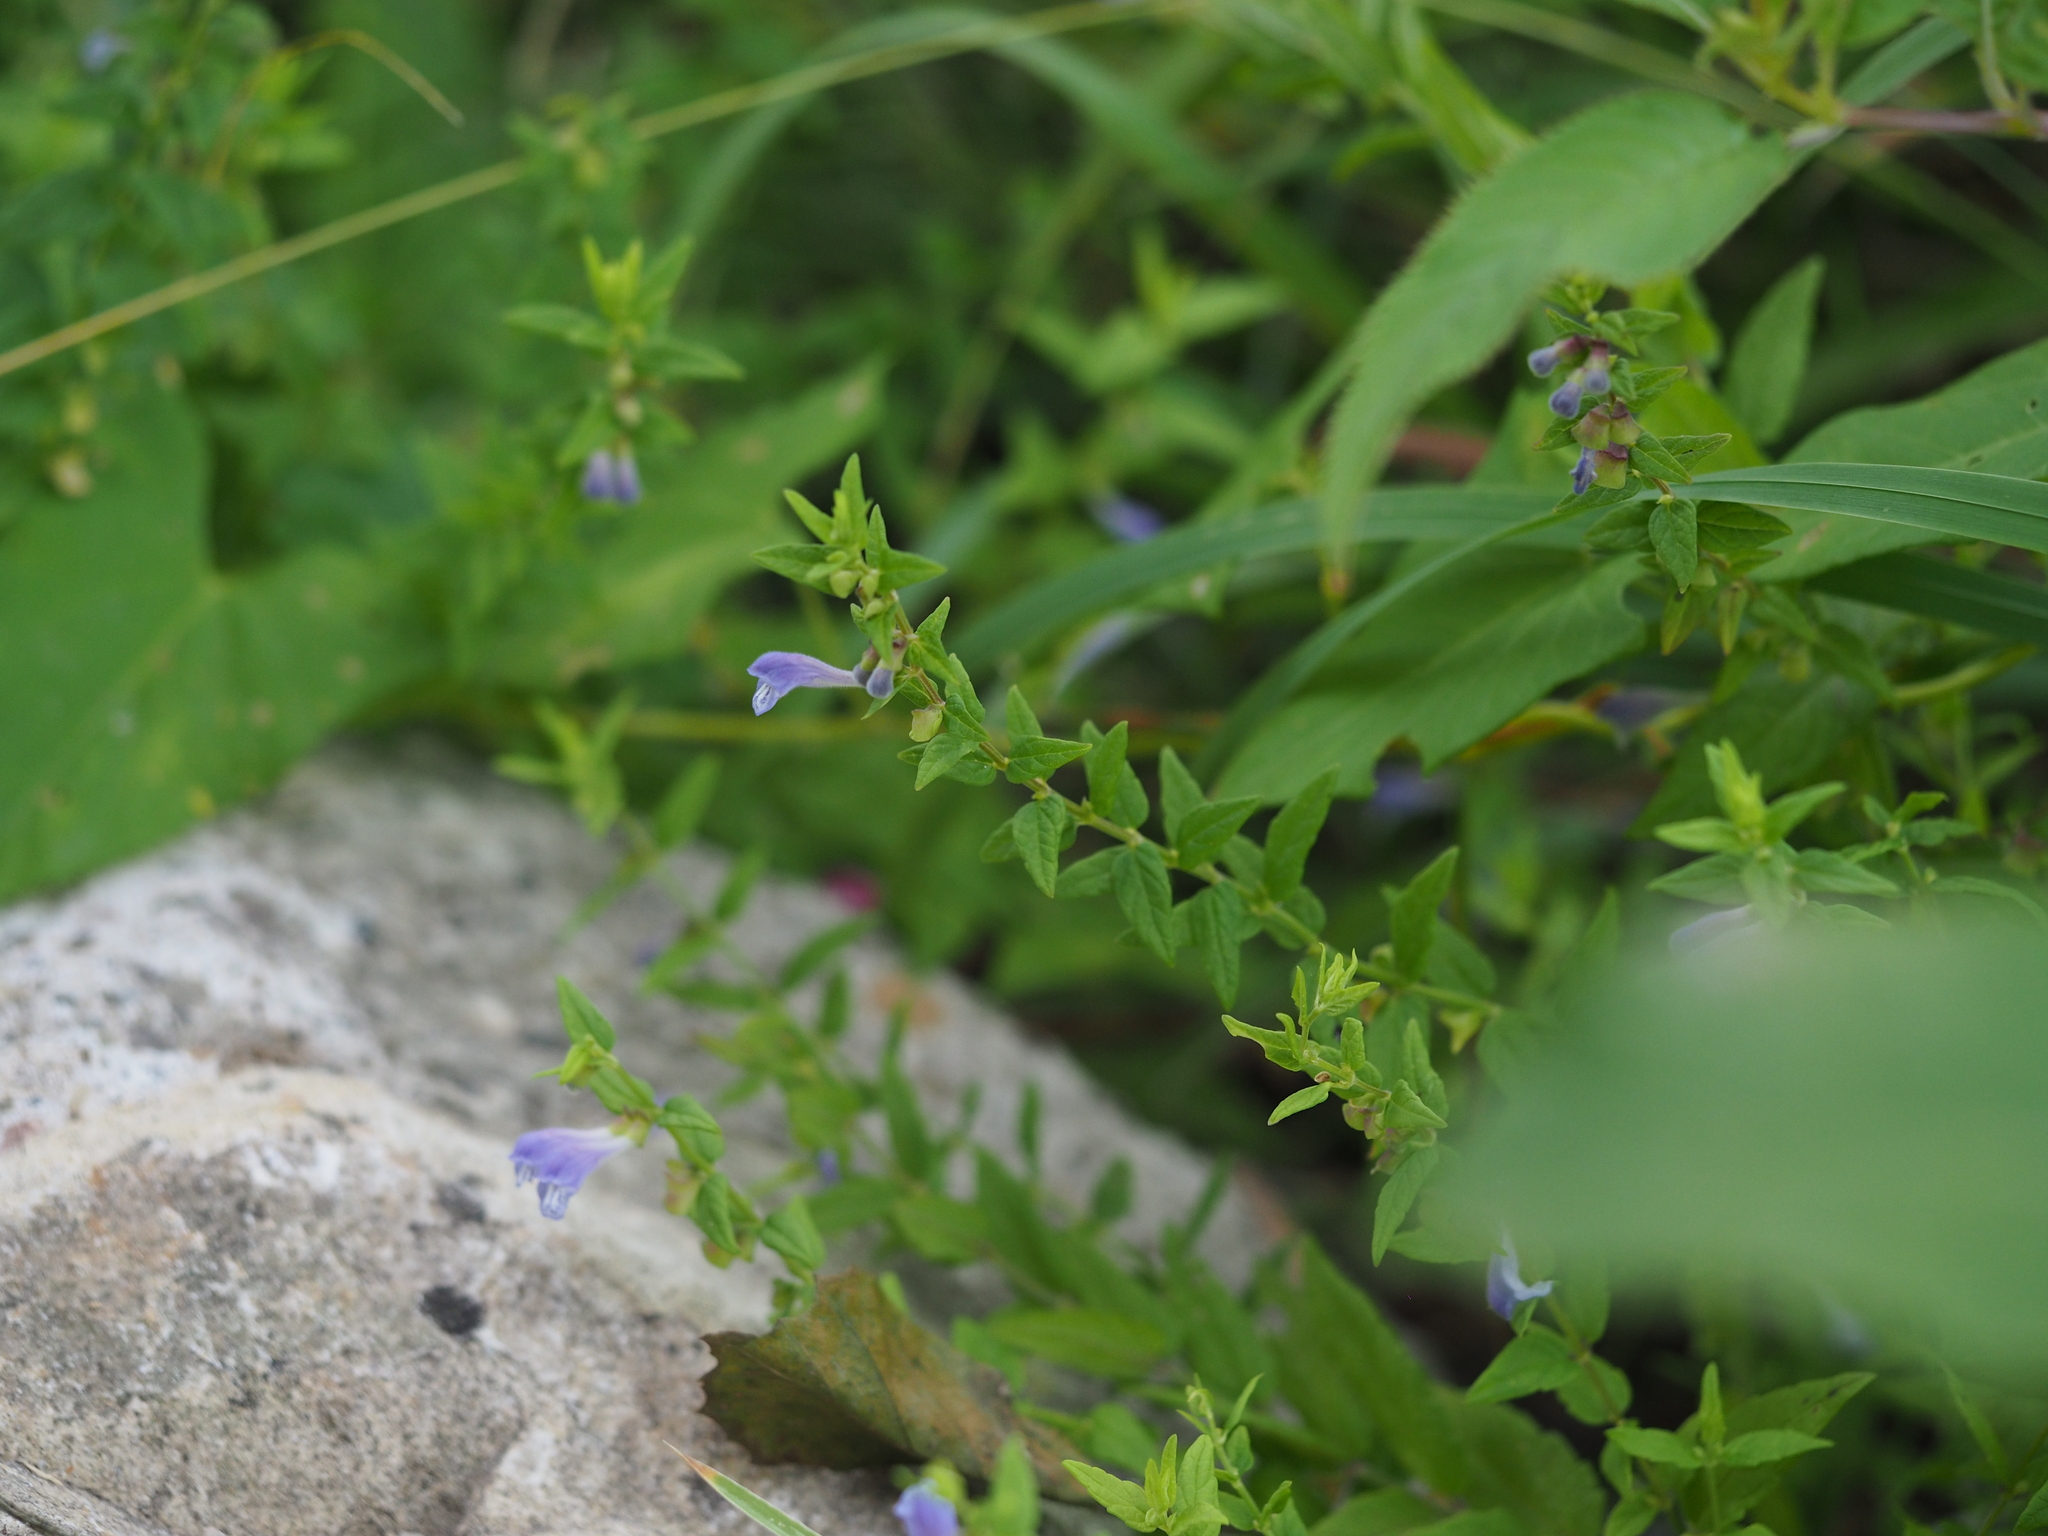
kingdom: Plantae
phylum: Tracheophyta
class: Magnoliopsida
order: Lamiales
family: Lamiaceae
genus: Scutellaria
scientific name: Scutellaria galericulata
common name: Skullcap
